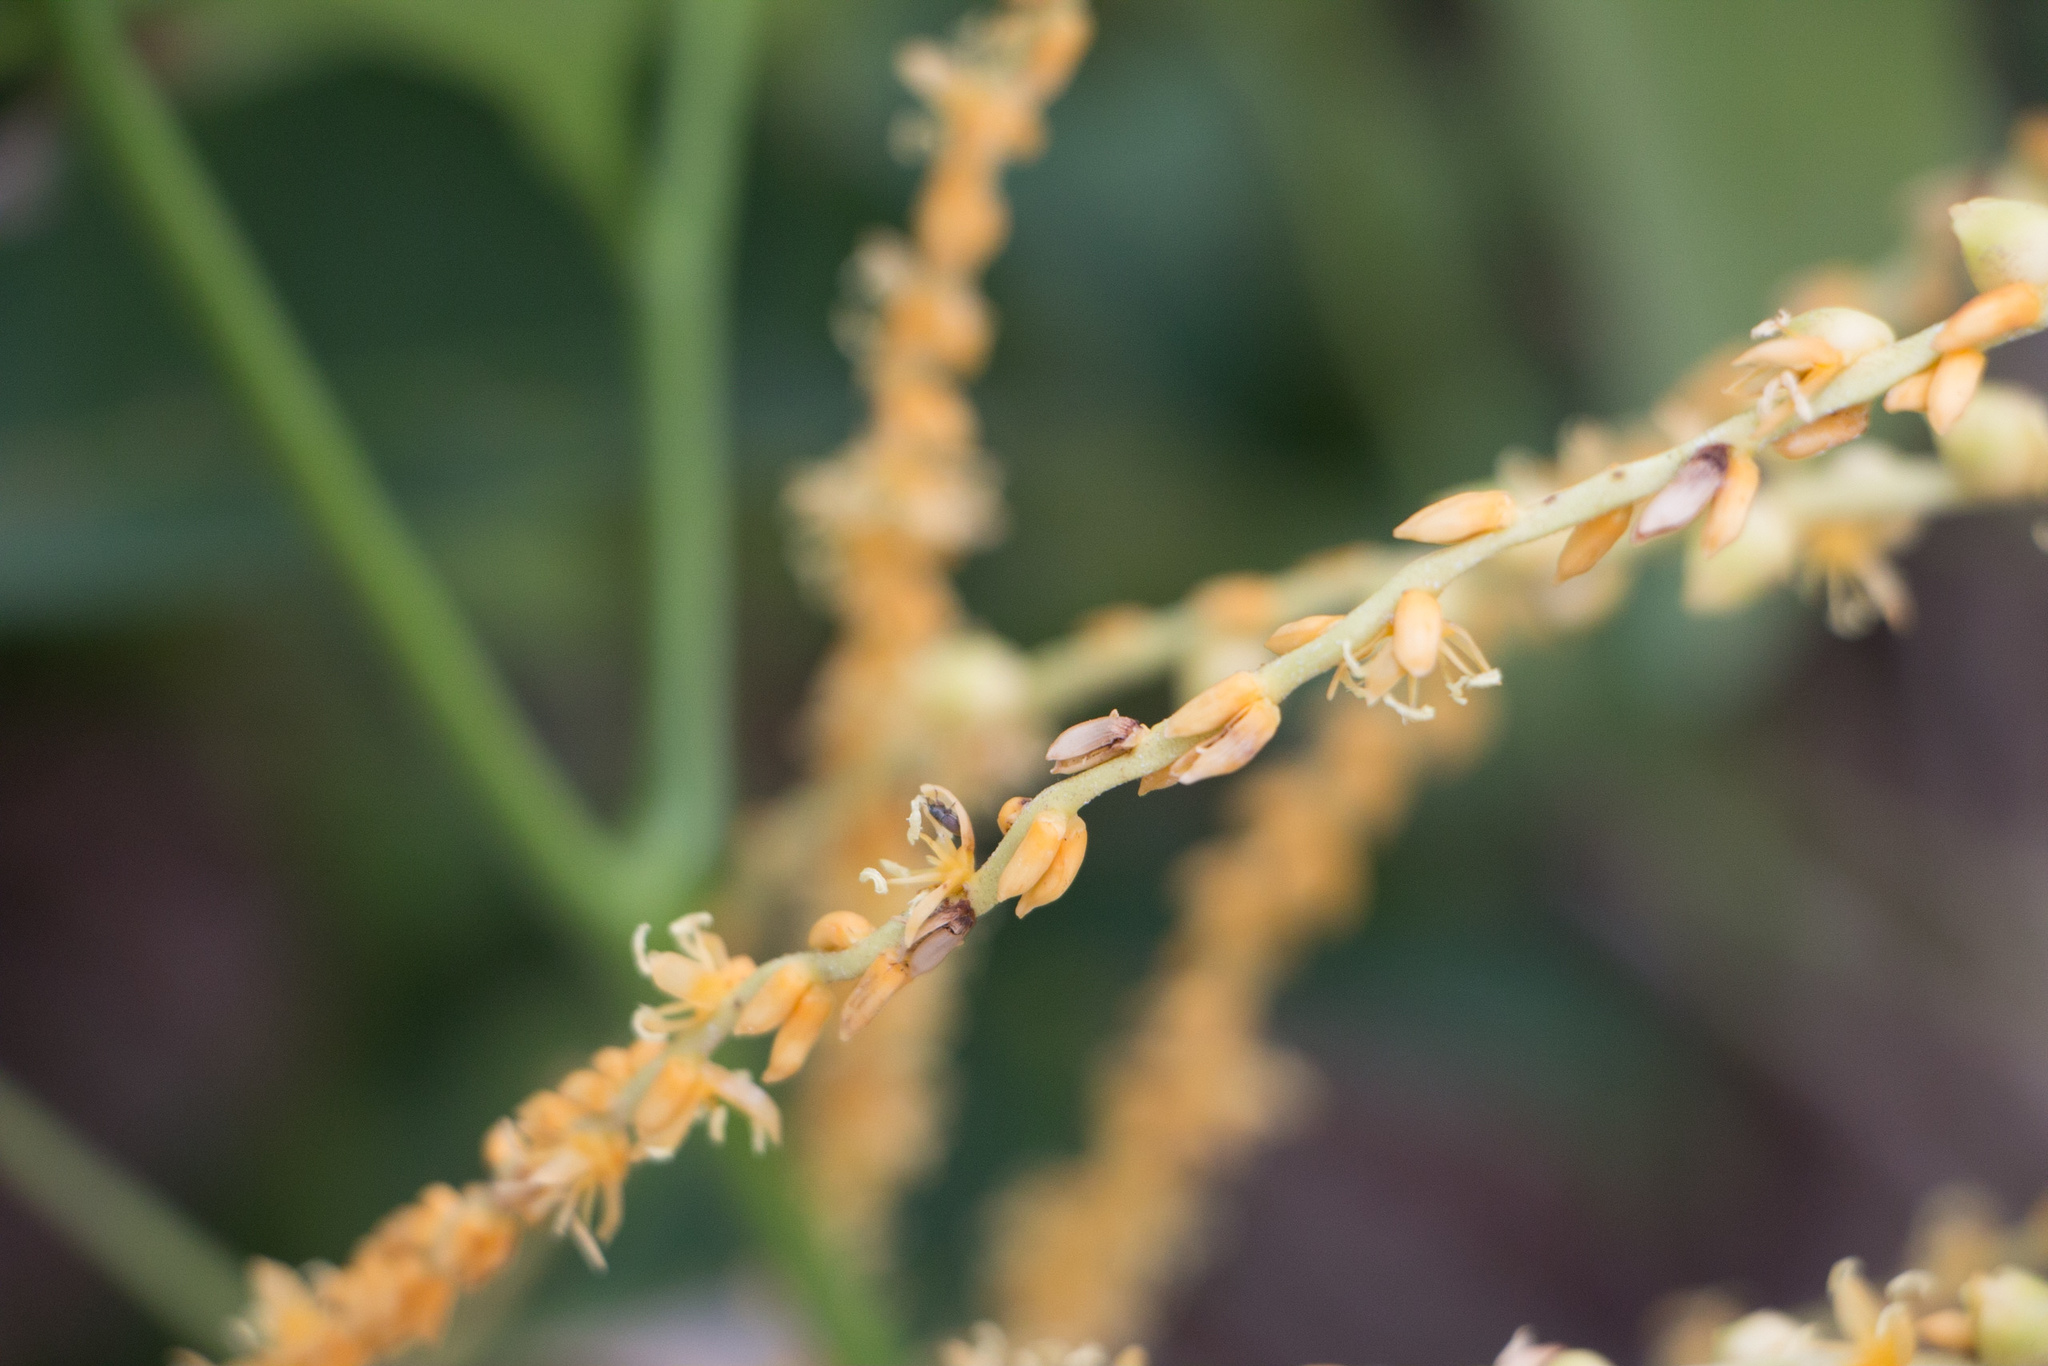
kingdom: Plantae
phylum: Tracheophyta
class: Liliopsida
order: Arecales
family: Arecaceae
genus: Syagrus
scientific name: Syagrus schizophylla
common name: Arikury palm
